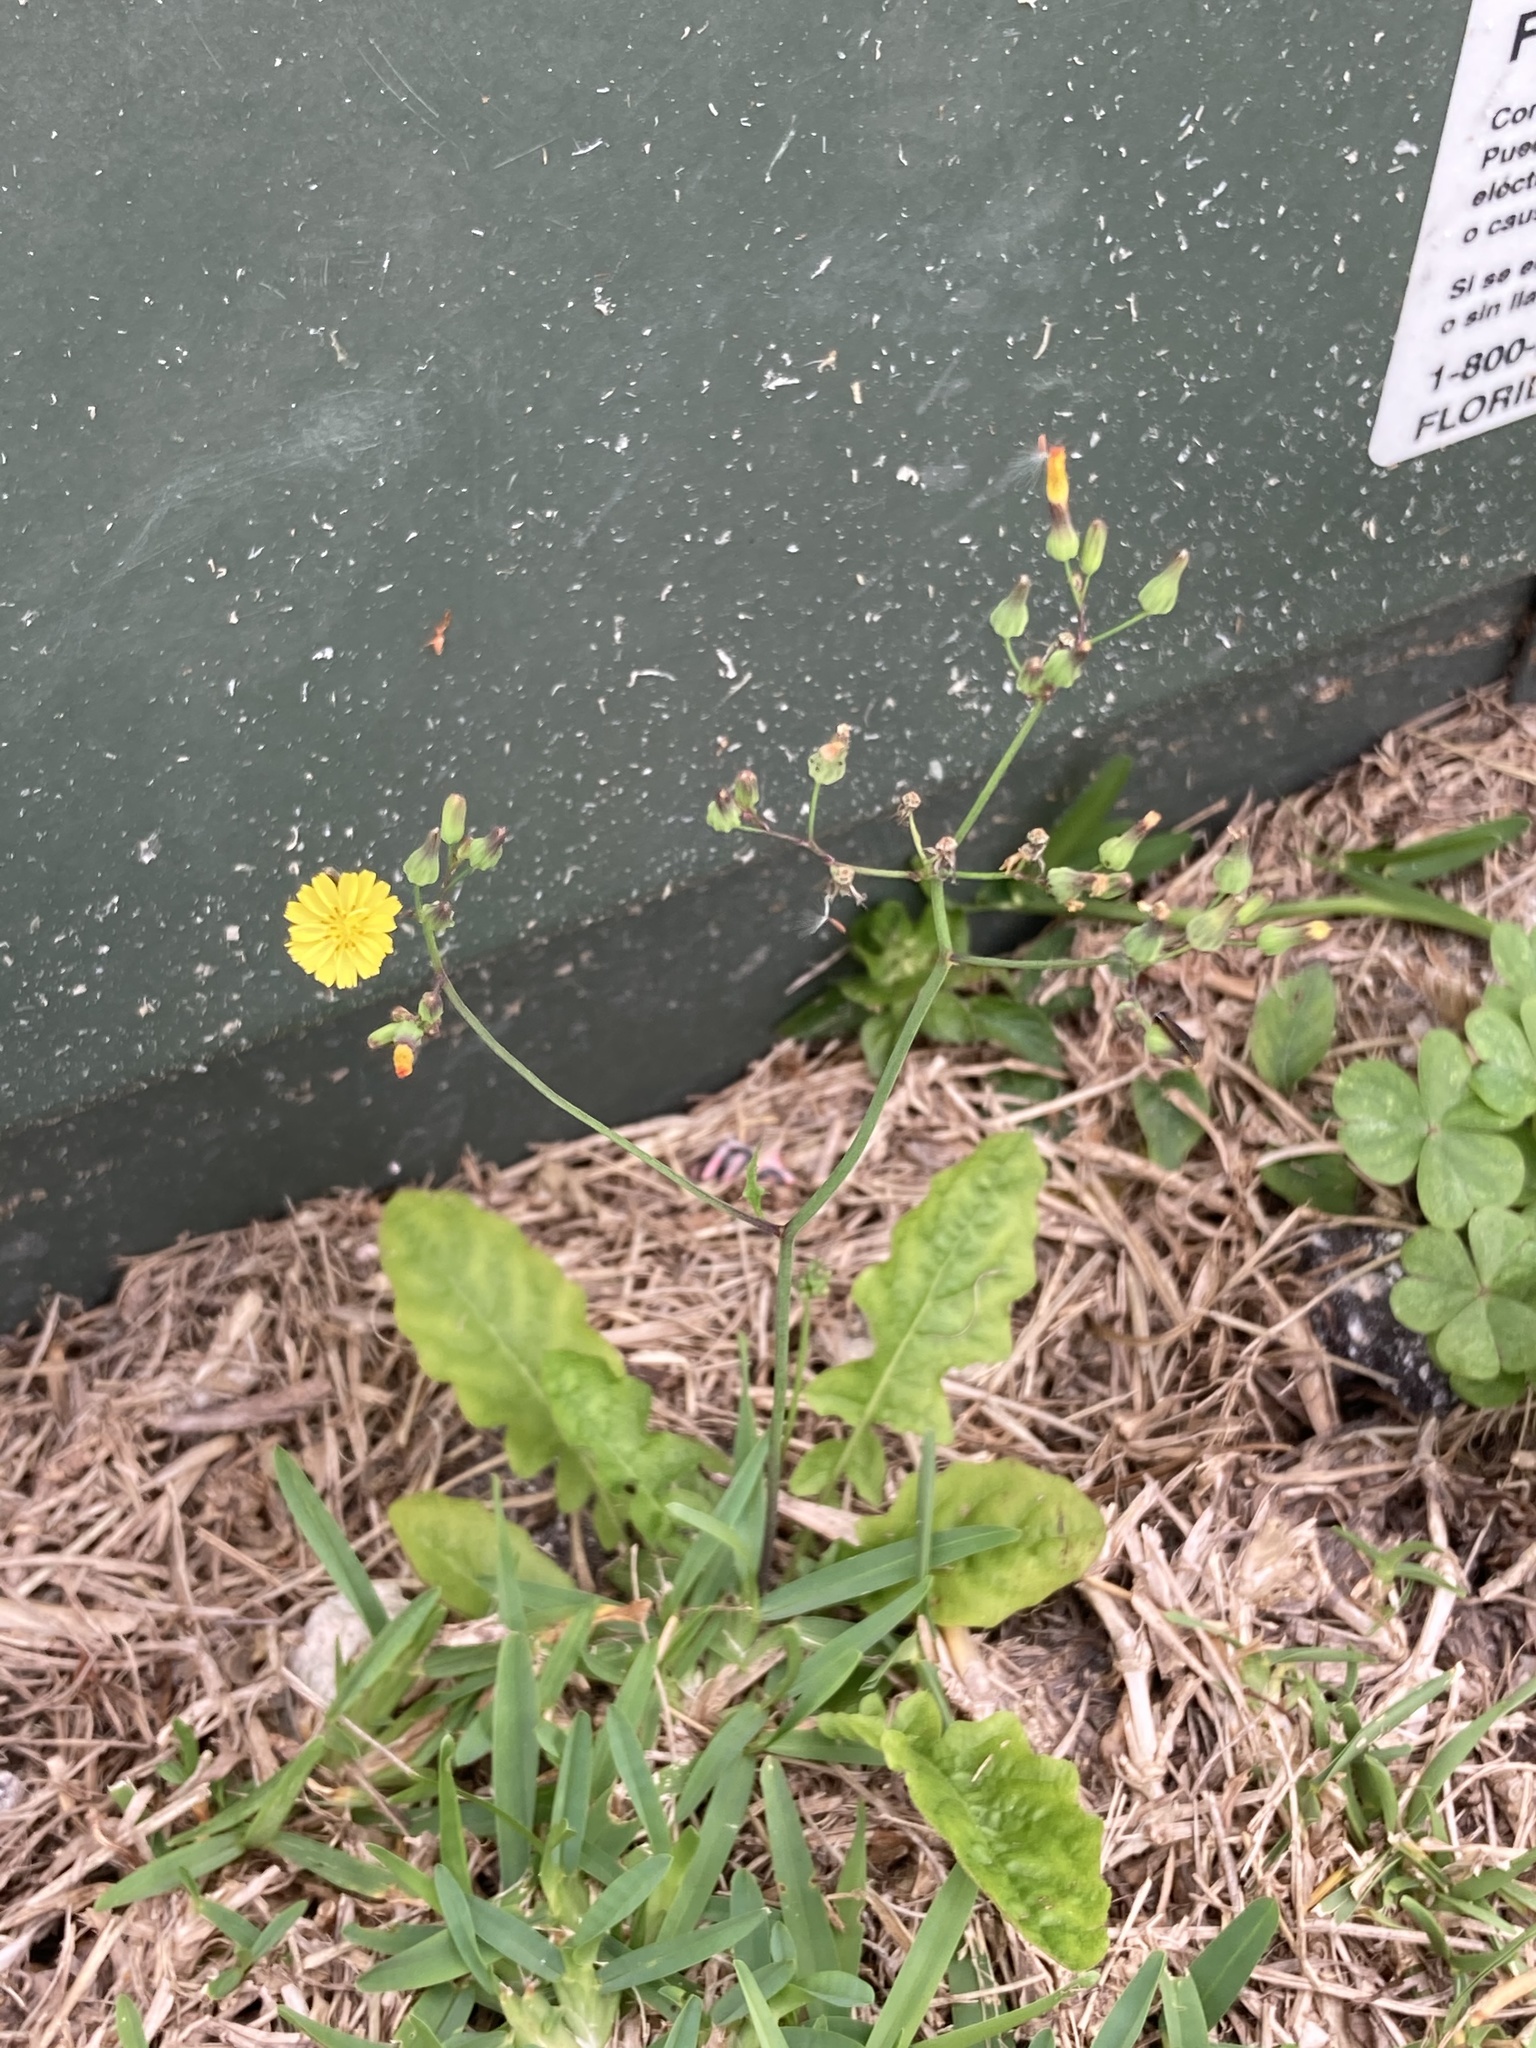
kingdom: Plantae
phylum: Tracheophyta
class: Magnoliopsida
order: Asterales
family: Asteraceae
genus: Youngia
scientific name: Youngia japonica
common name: Oriental false hawksbeard
